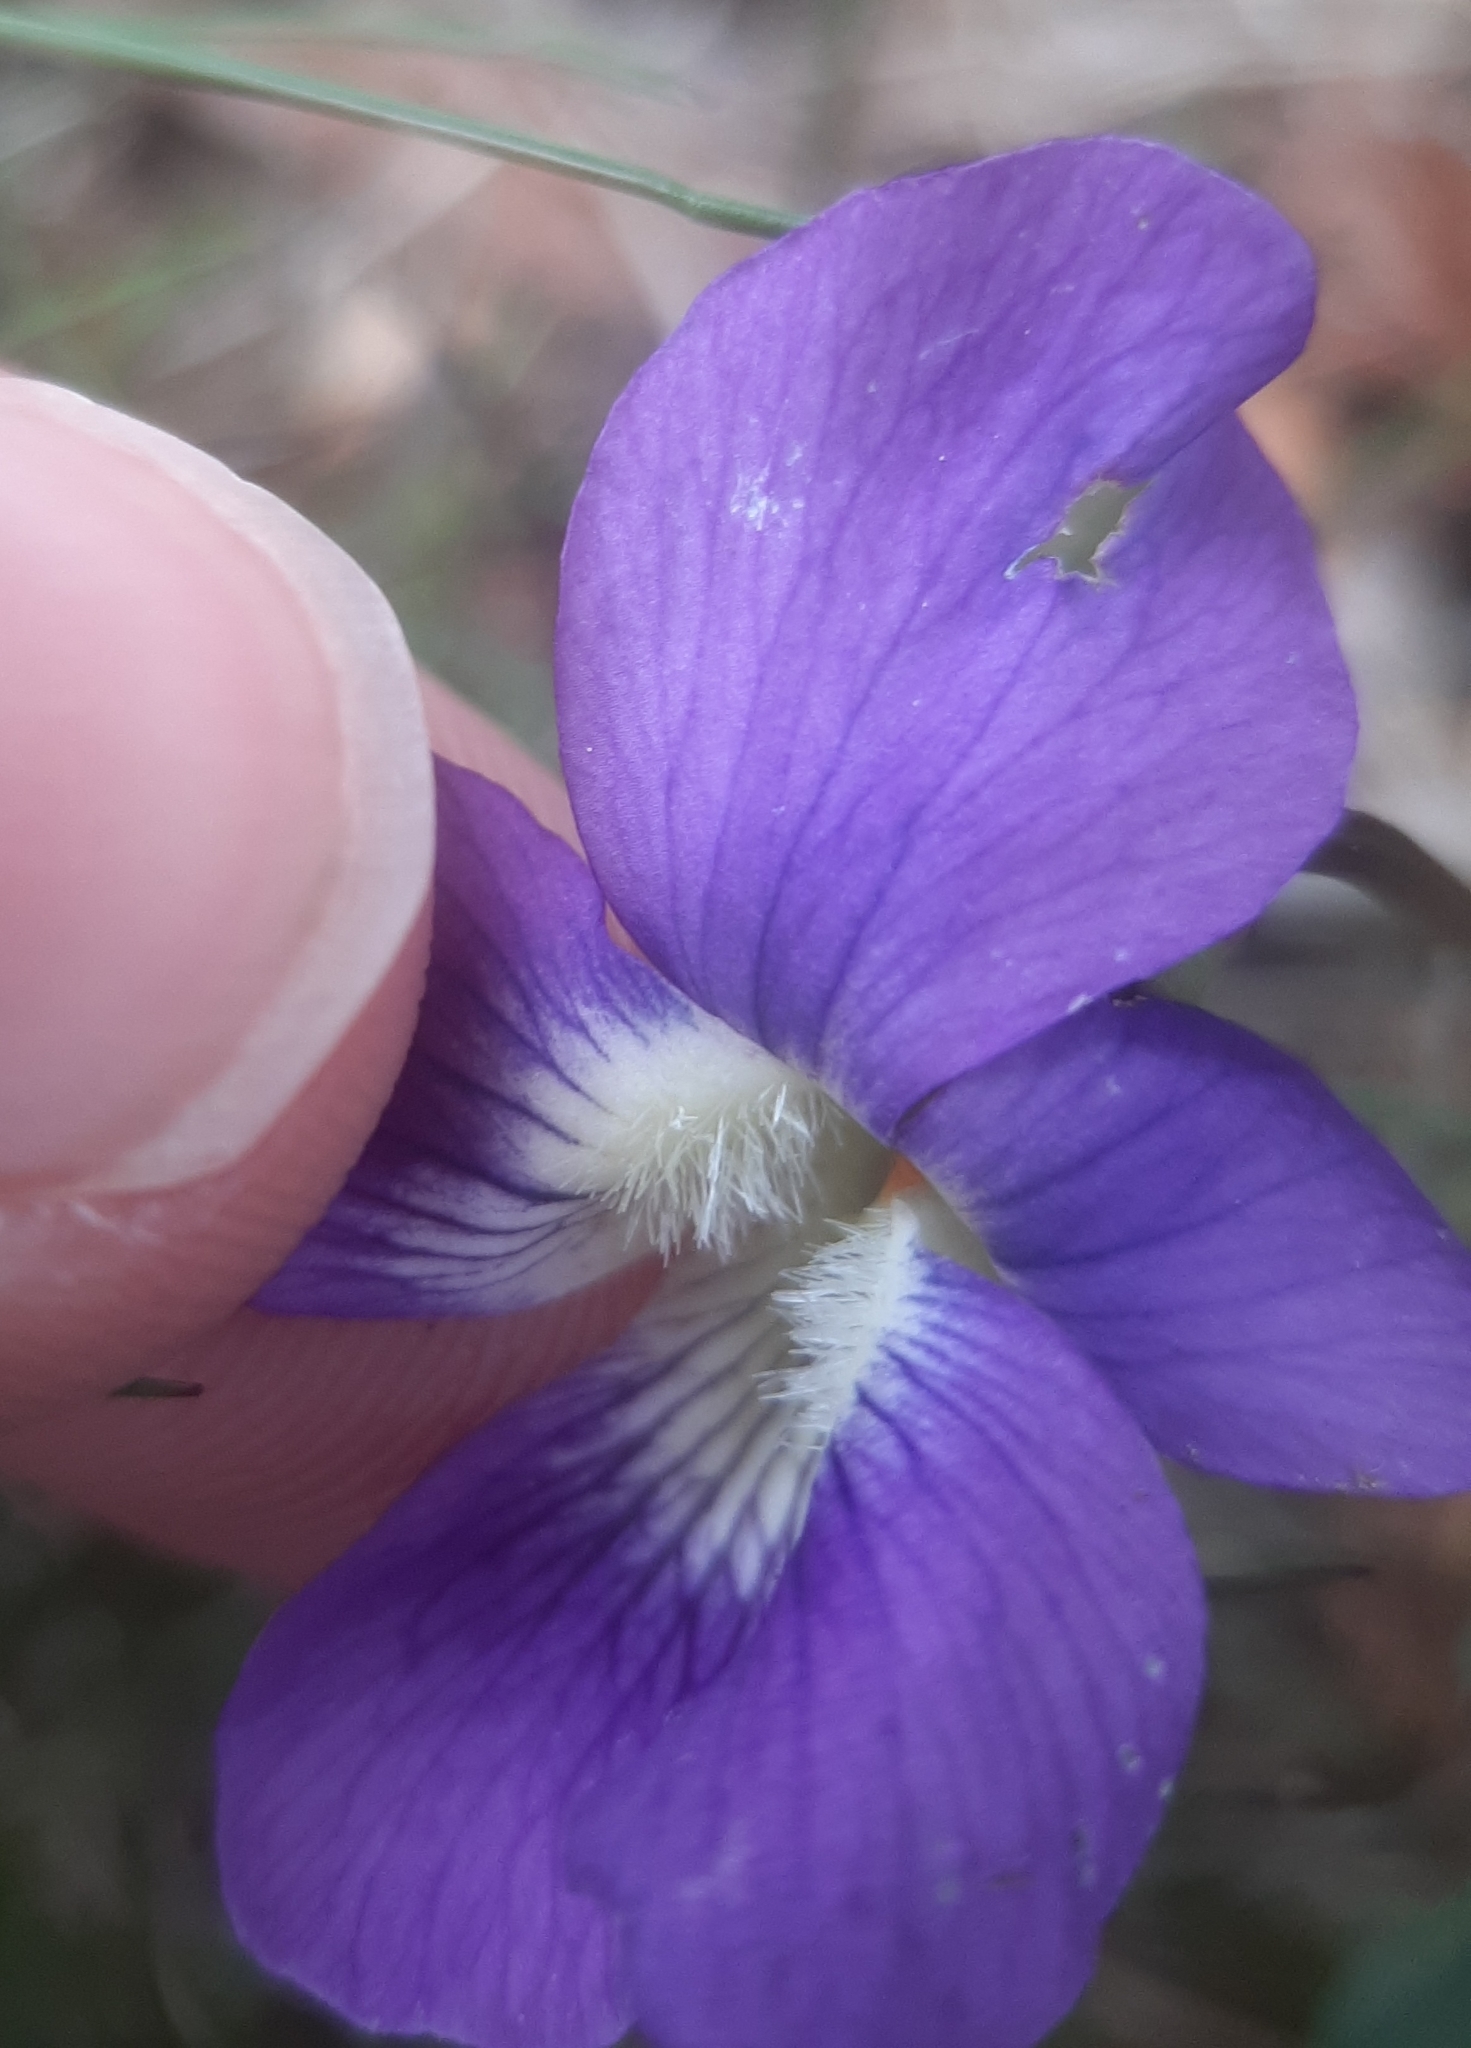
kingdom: Plantae
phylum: Tracheophyta
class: Magnoliopsida
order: Malpighiales
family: Violaceae
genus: Viola
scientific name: Viola sororia
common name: Dooryard violet
